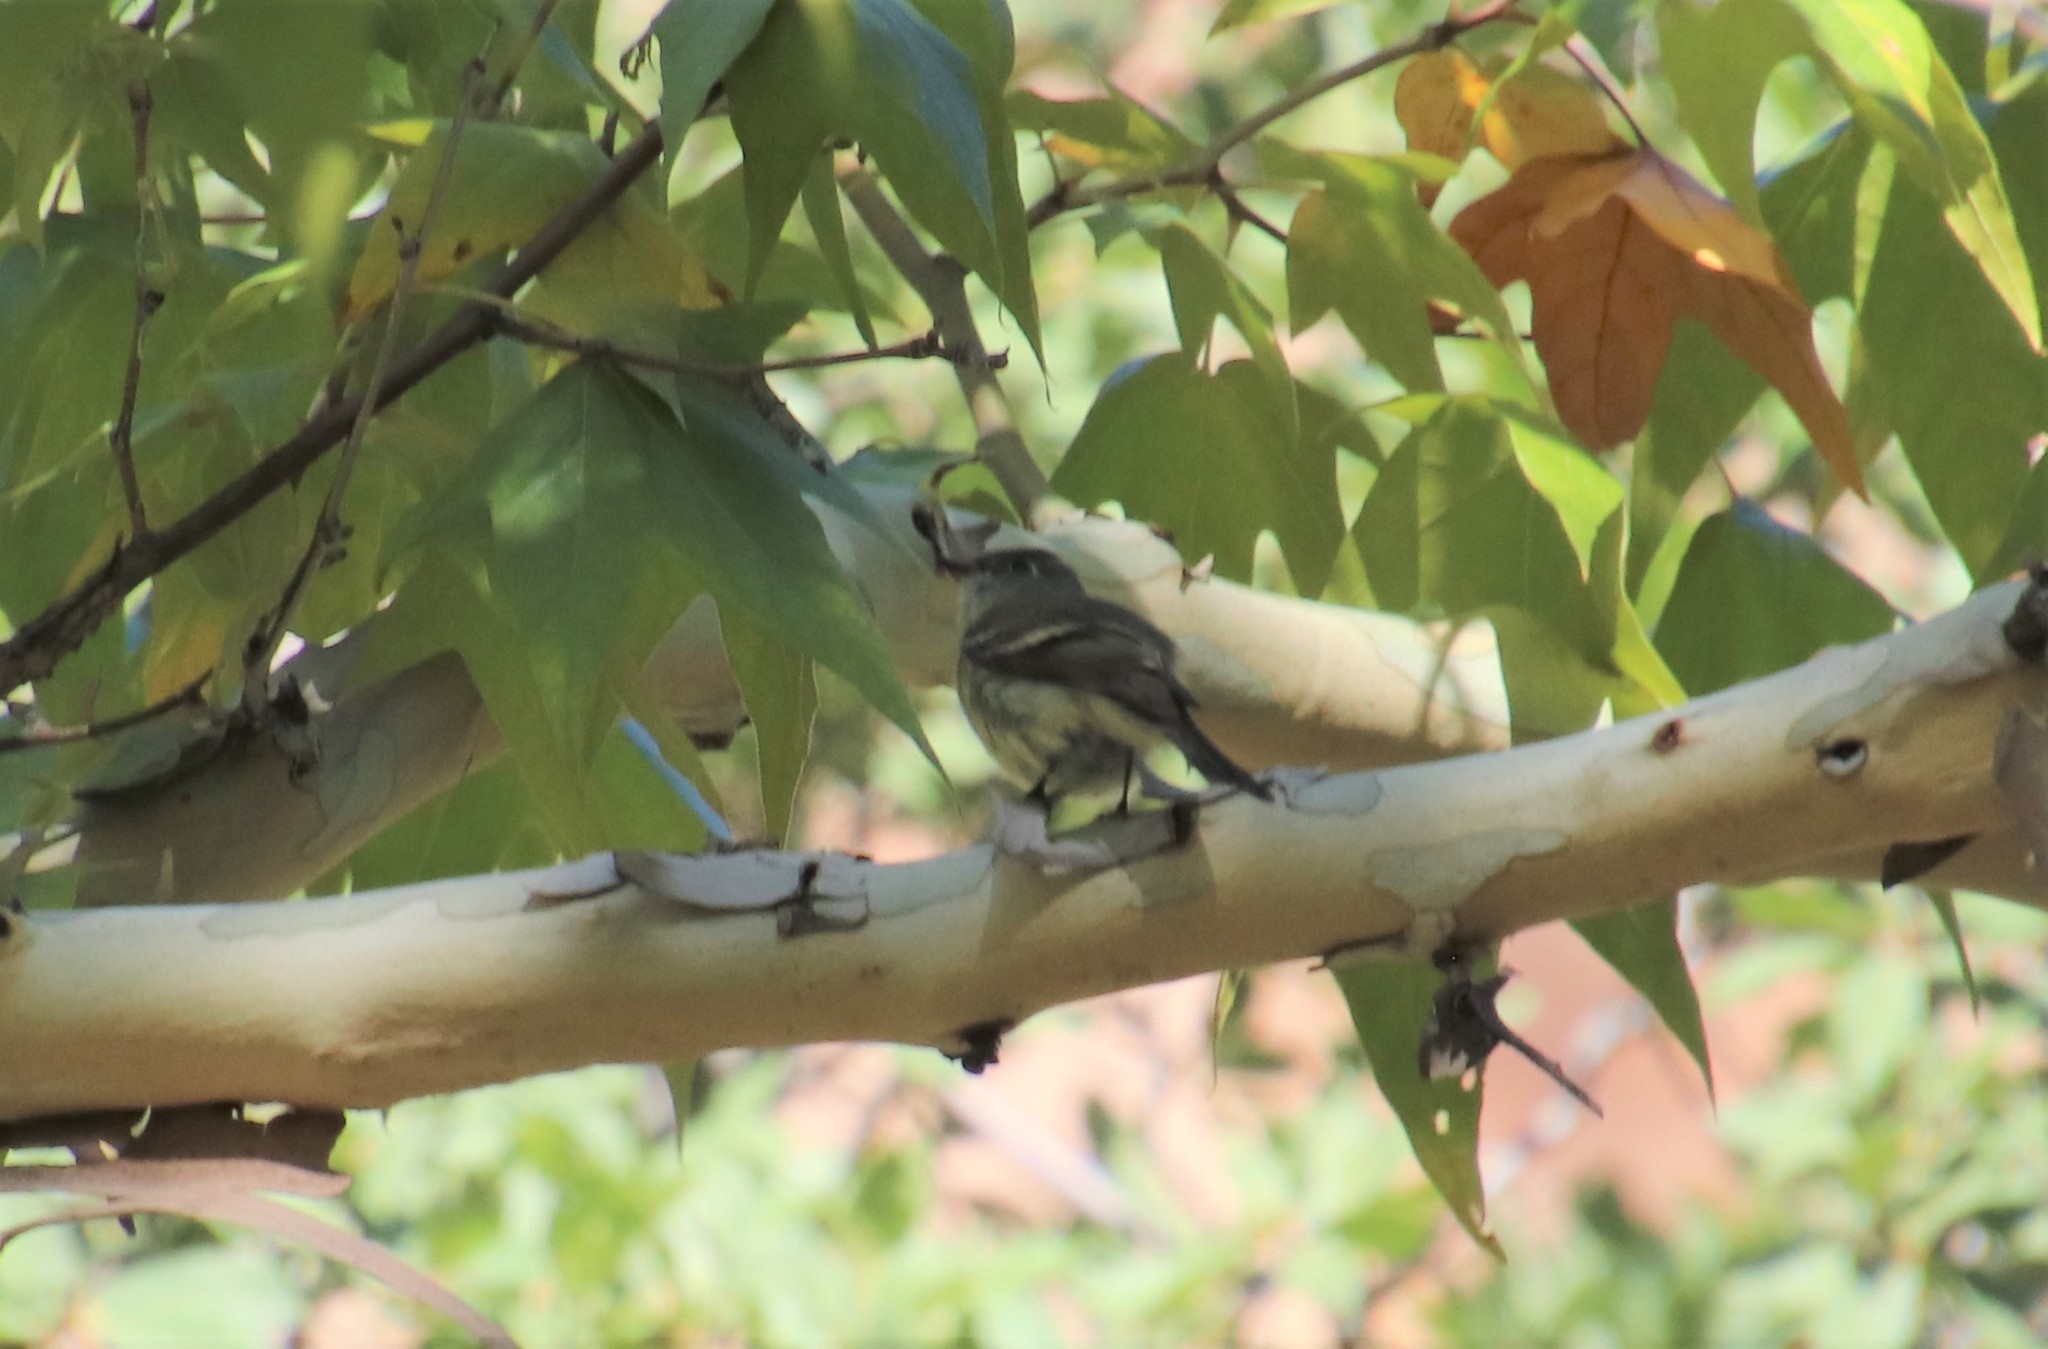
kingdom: Animalia
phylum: Chordata
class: Aves
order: Passeriformes
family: Tyrannidae
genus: Empidonax
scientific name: Empidonax hammondii
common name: Hammond's flycatcher
